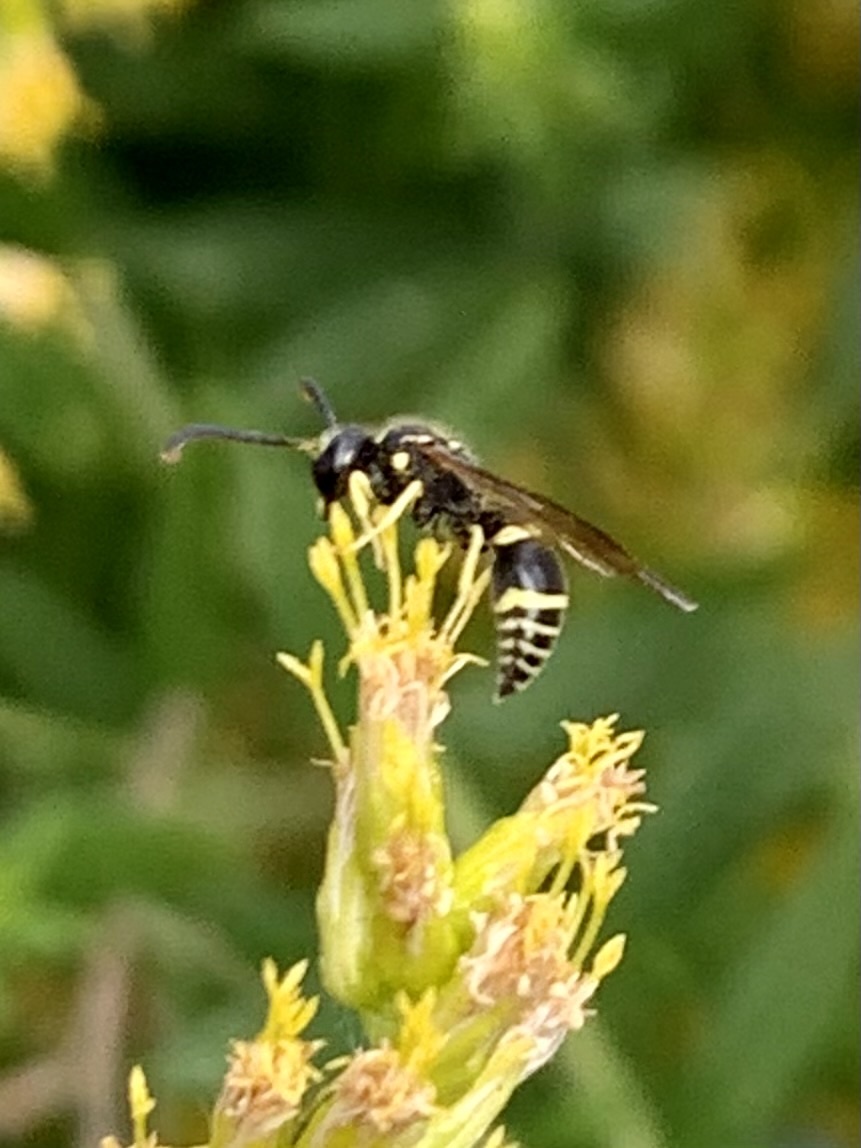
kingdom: Animalia
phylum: Arthropoda
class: Insecta
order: Hymenoptera
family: Vespidae
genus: Ancistrocerus
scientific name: Ancistrocerus adiabatus
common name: Bramble mason wasp
